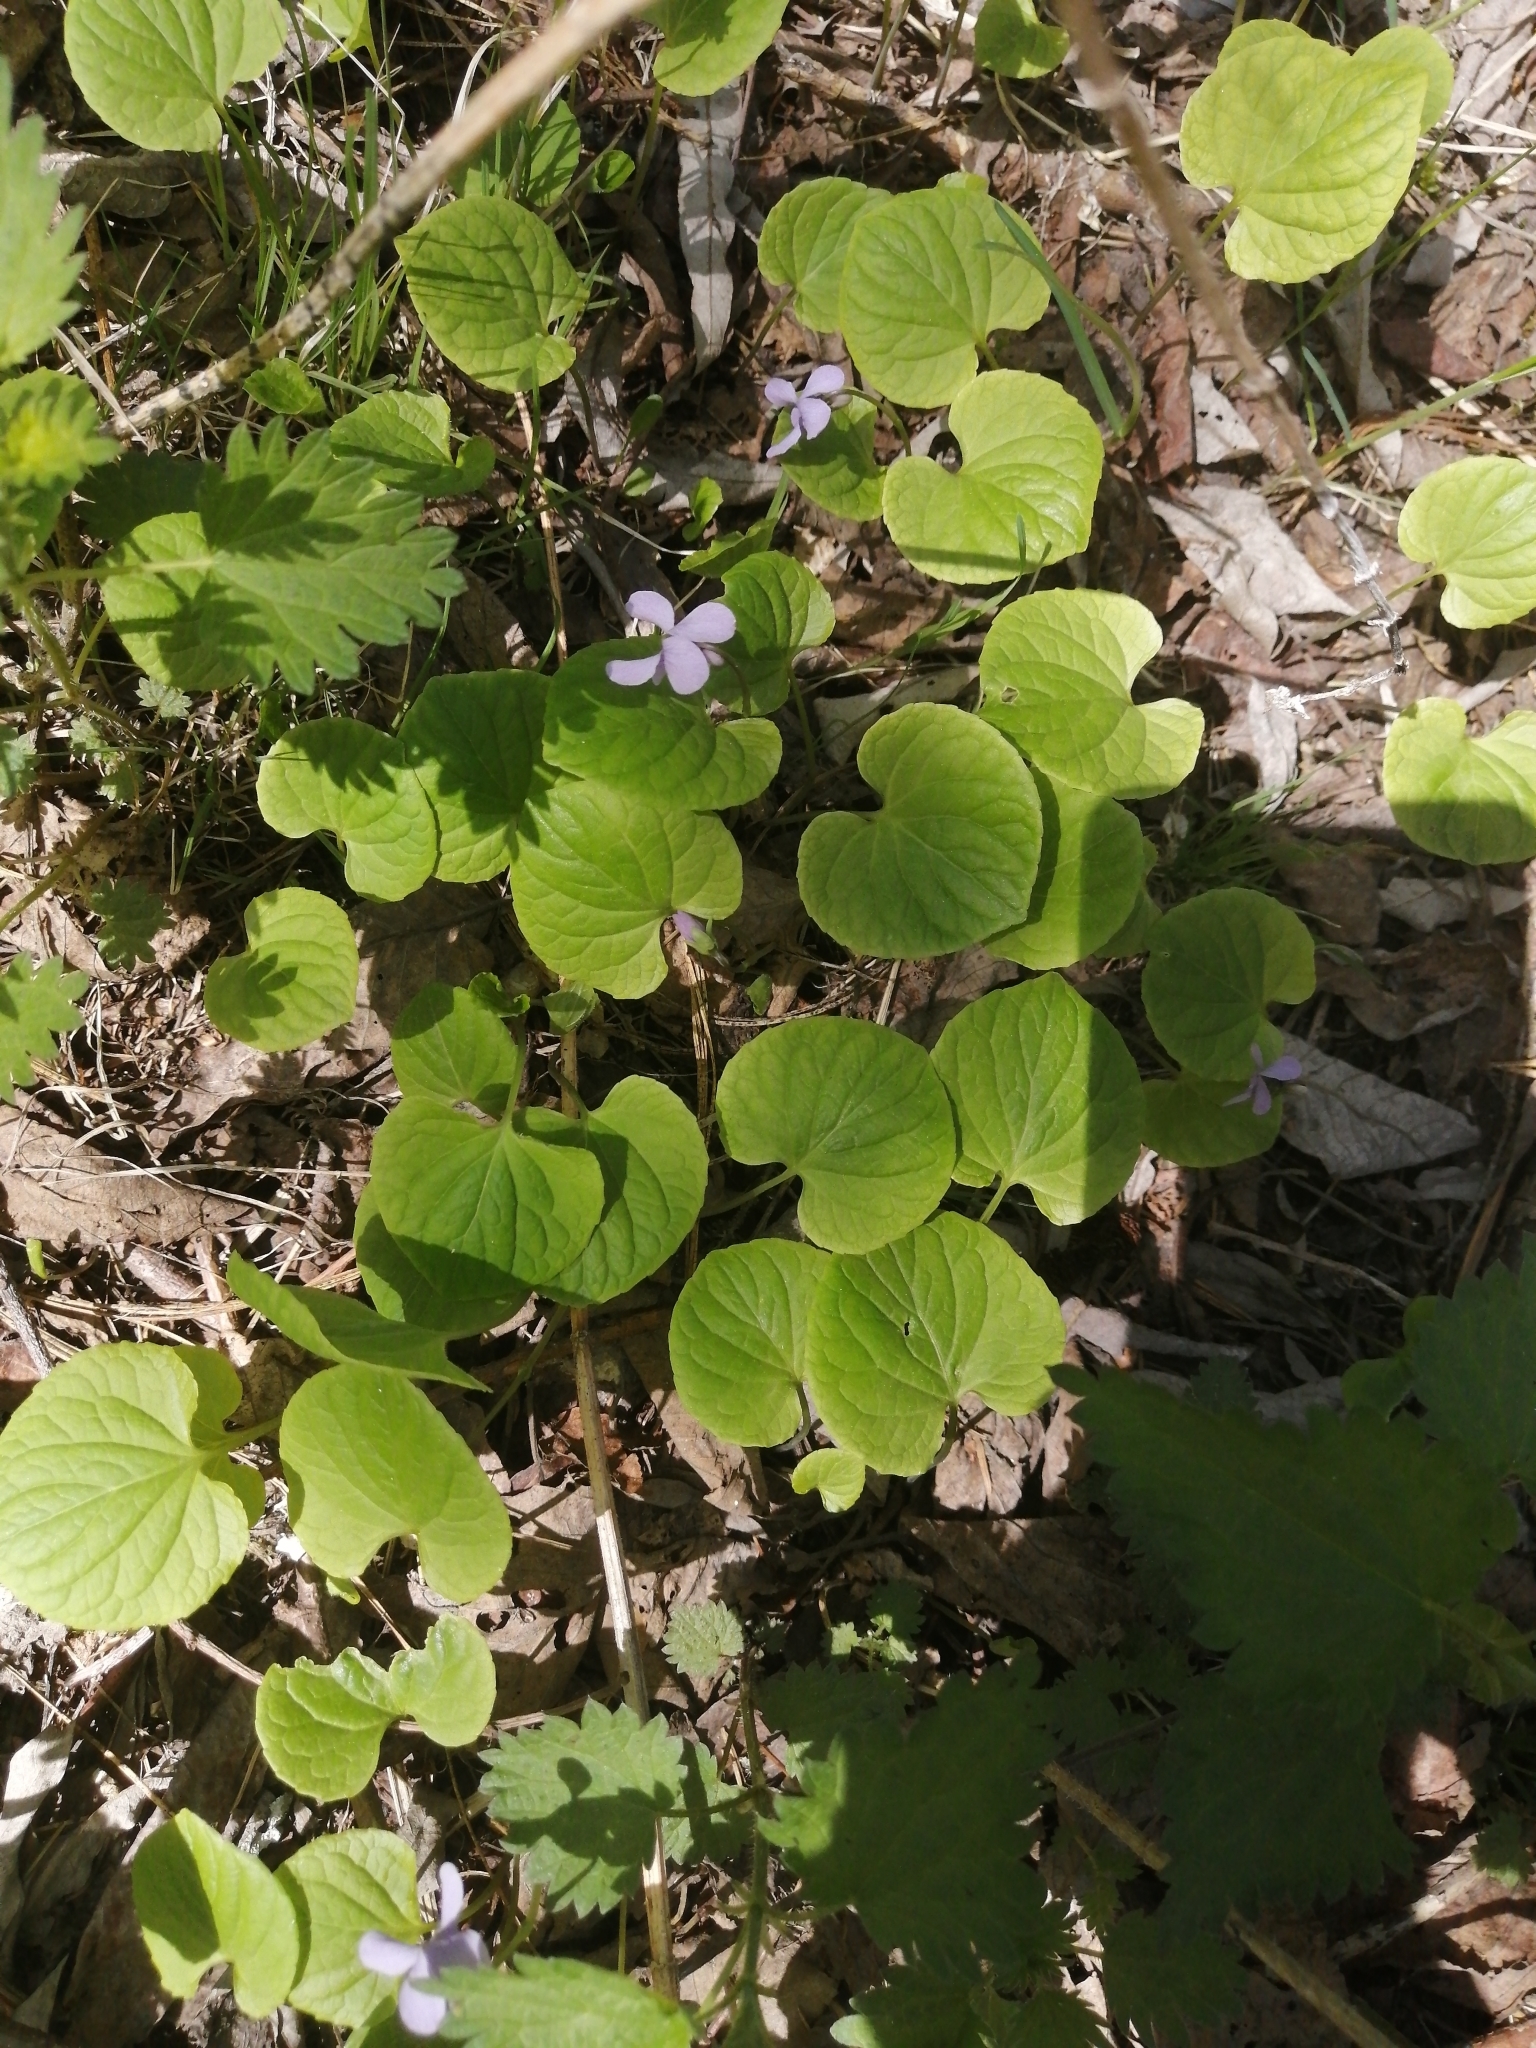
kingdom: Plantae
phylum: Tracheophyta
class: Magnoliopsida
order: Malpighiales
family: Violaceae
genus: Viola
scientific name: Viola epipsila
